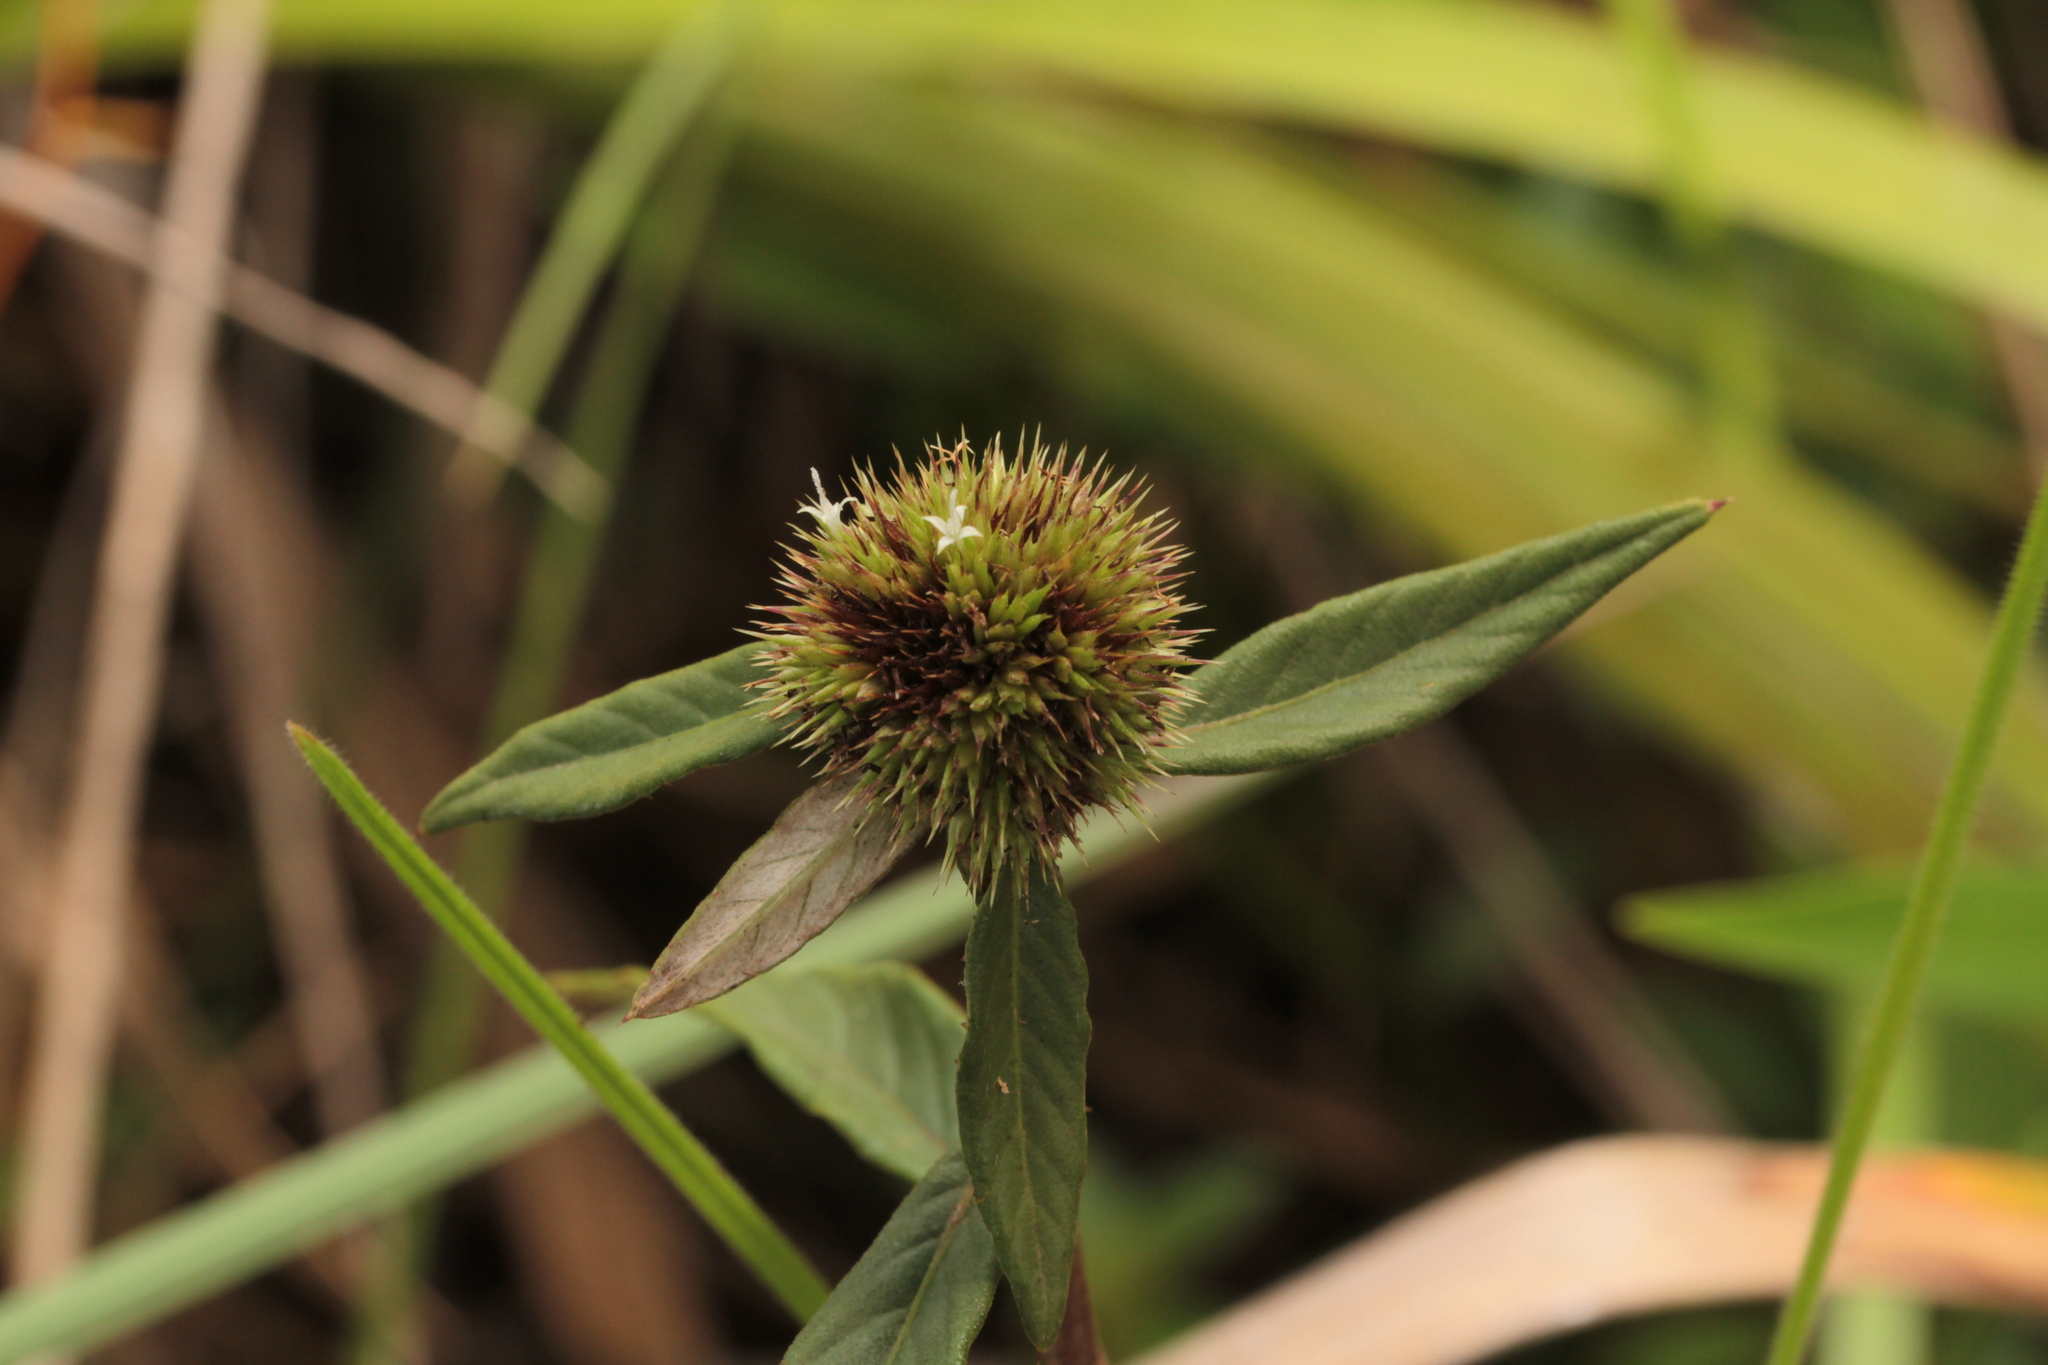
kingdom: Plantae
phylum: Tracheophyta
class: Magnoliopsida
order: Asterales
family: Asteraceae
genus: Rolandra
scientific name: Rolandra fruticosa
